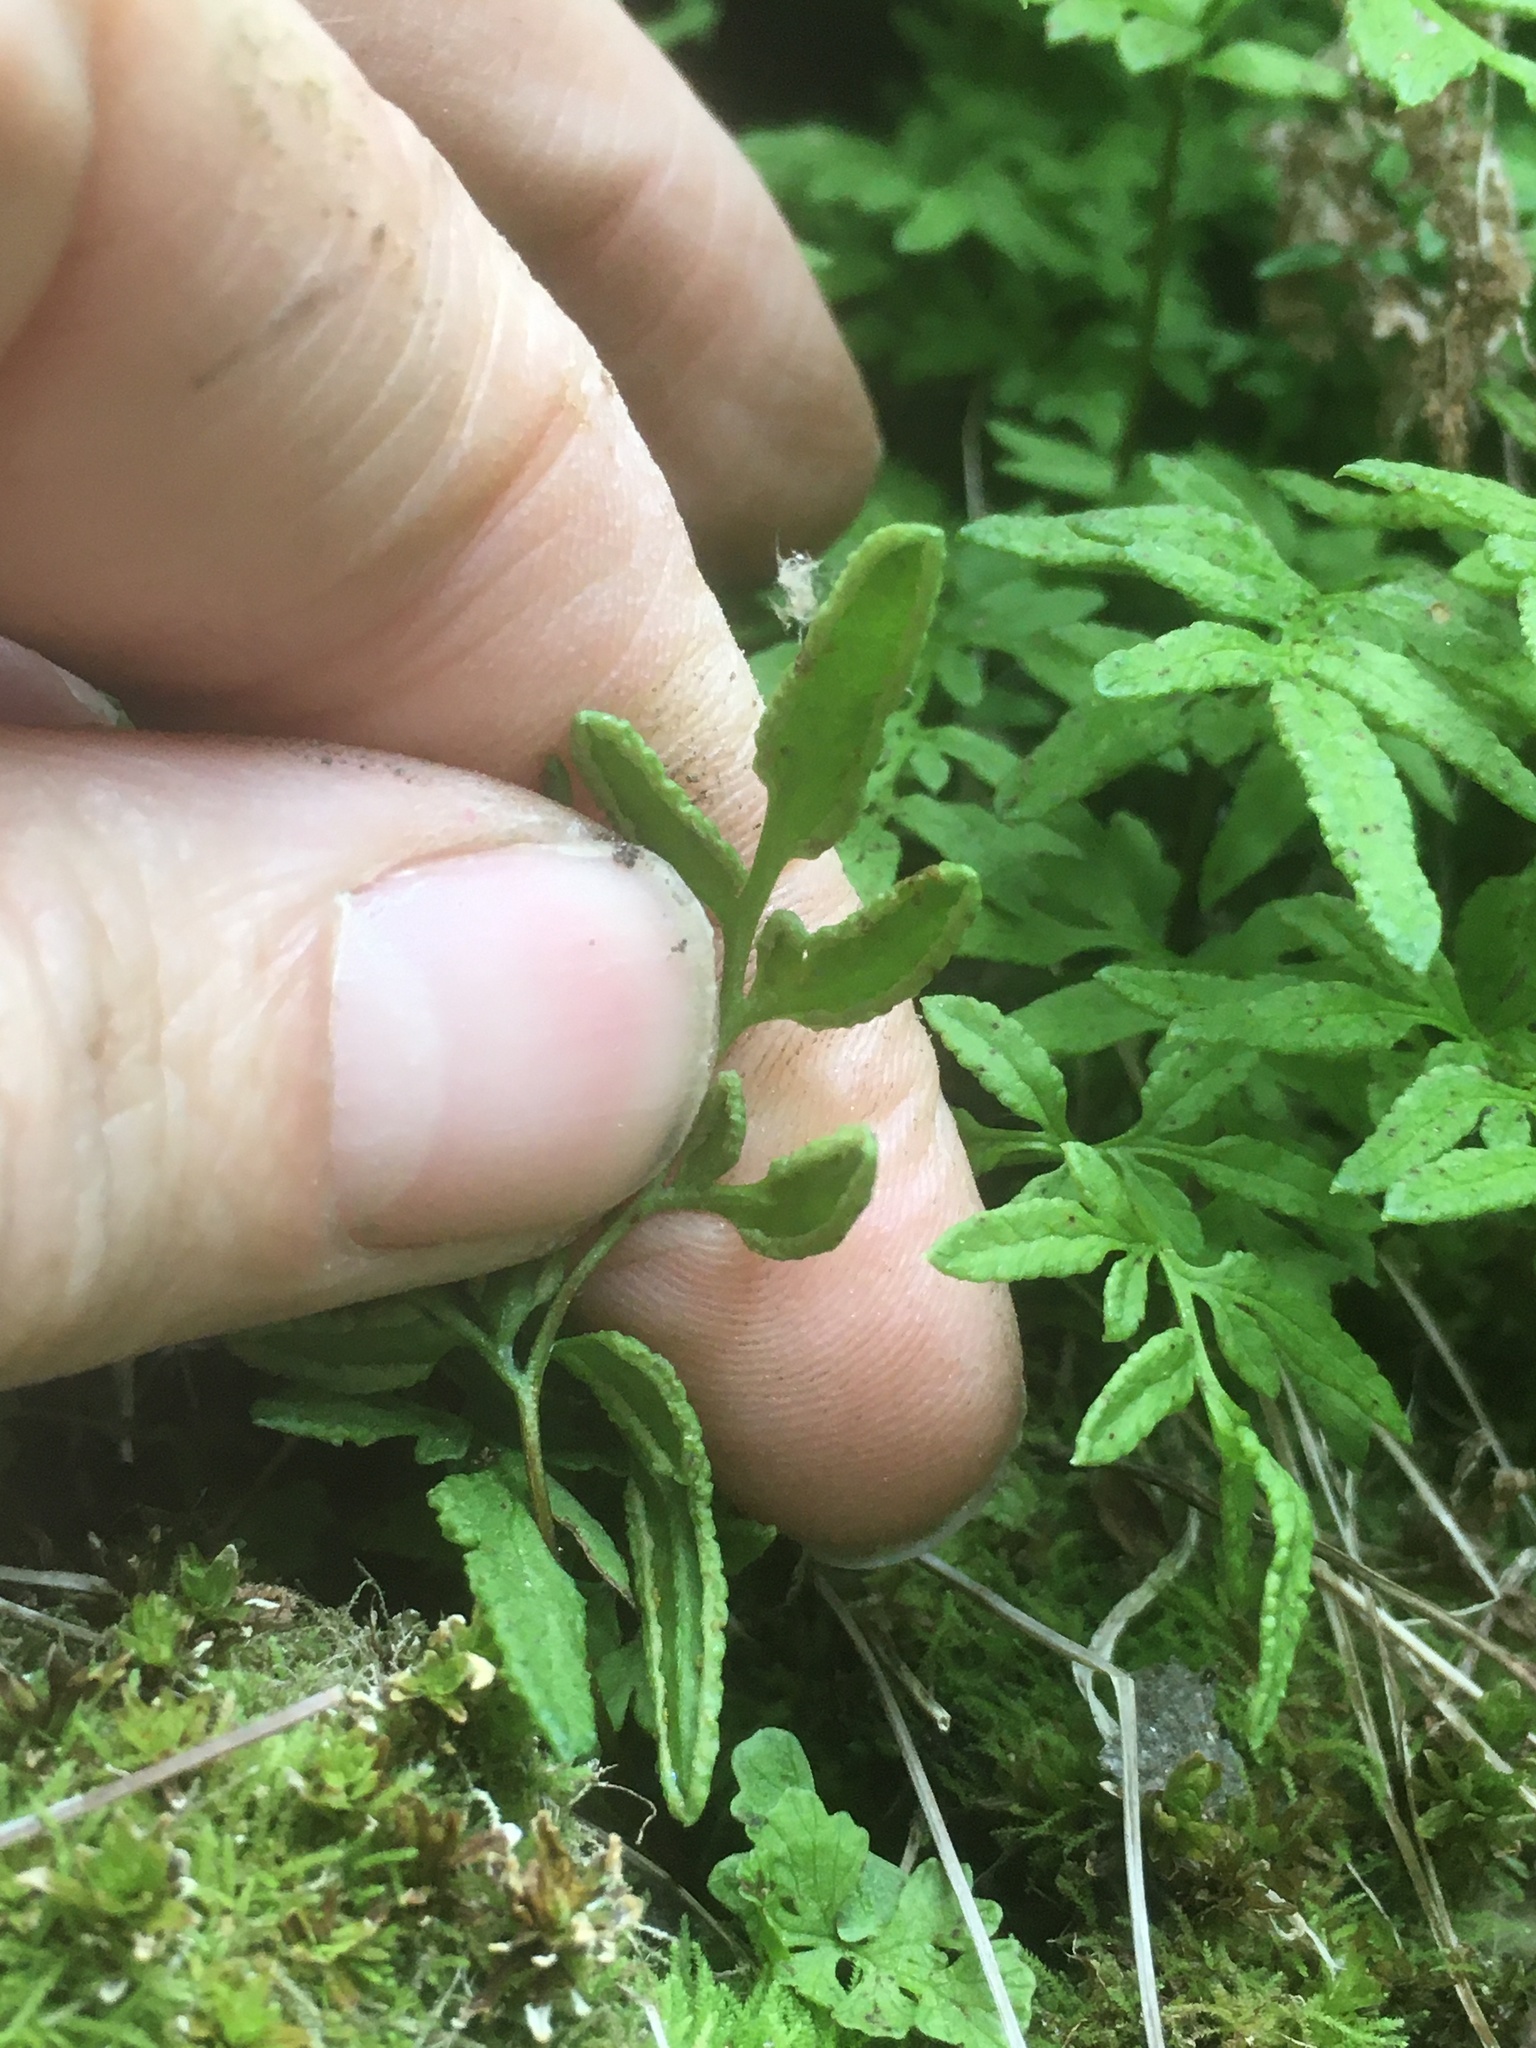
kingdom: Plantae
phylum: Tracheophyta
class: Polypodiopsida
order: Polypodiales
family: Pteridaceae
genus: Cryptogramma
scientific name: Cryptogramma stelleri
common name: Cliff-brake
